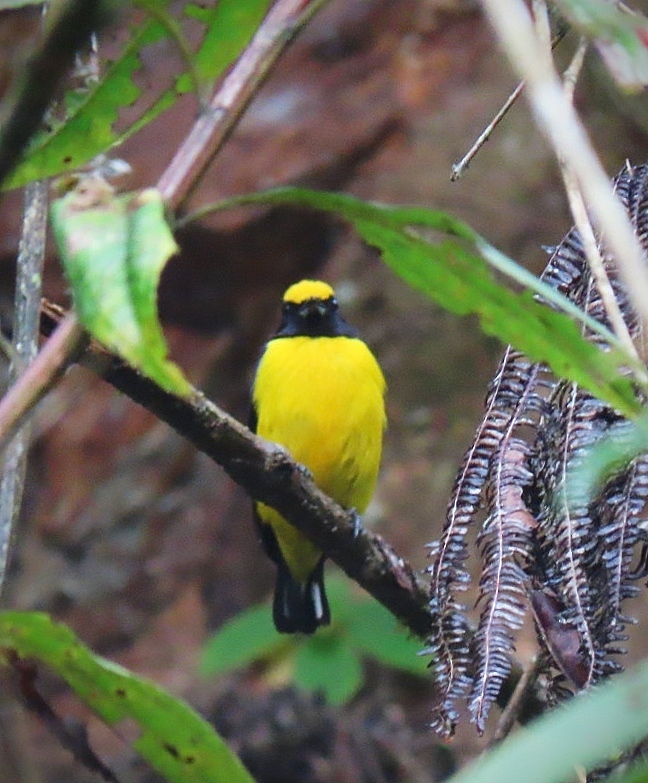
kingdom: Animalia
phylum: Chordata
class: Aves
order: Passeriformes
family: Fringillidae
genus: Euphonia
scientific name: Euphonia xanthogaster
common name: Orange-bellied euphonia
